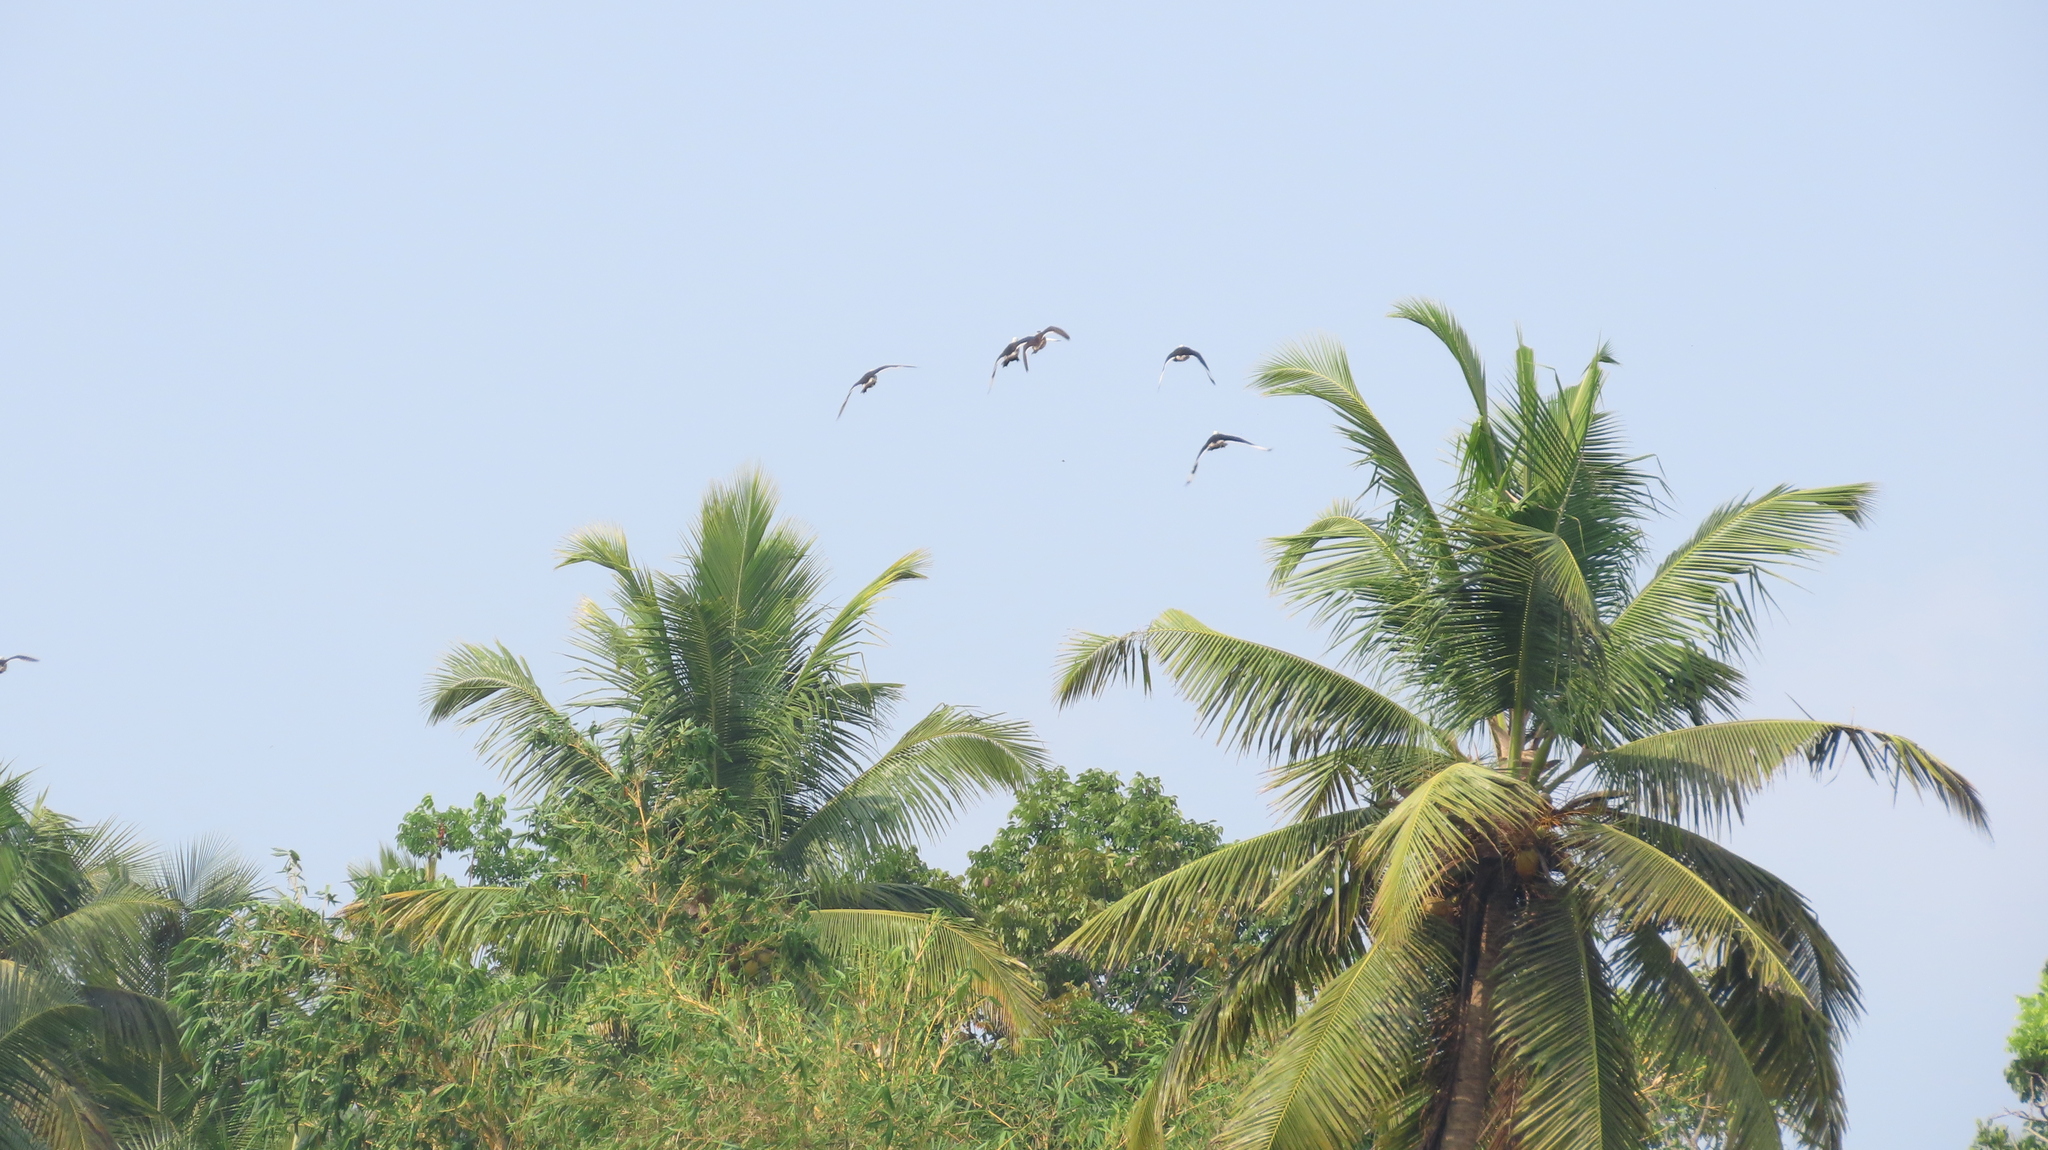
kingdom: Animalia
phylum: Chordata
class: Aves
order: Anseriformes
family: Anatidae
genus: Nettapus
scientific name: Nettapus coromandelianus
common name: Cotton pygmy-goose
